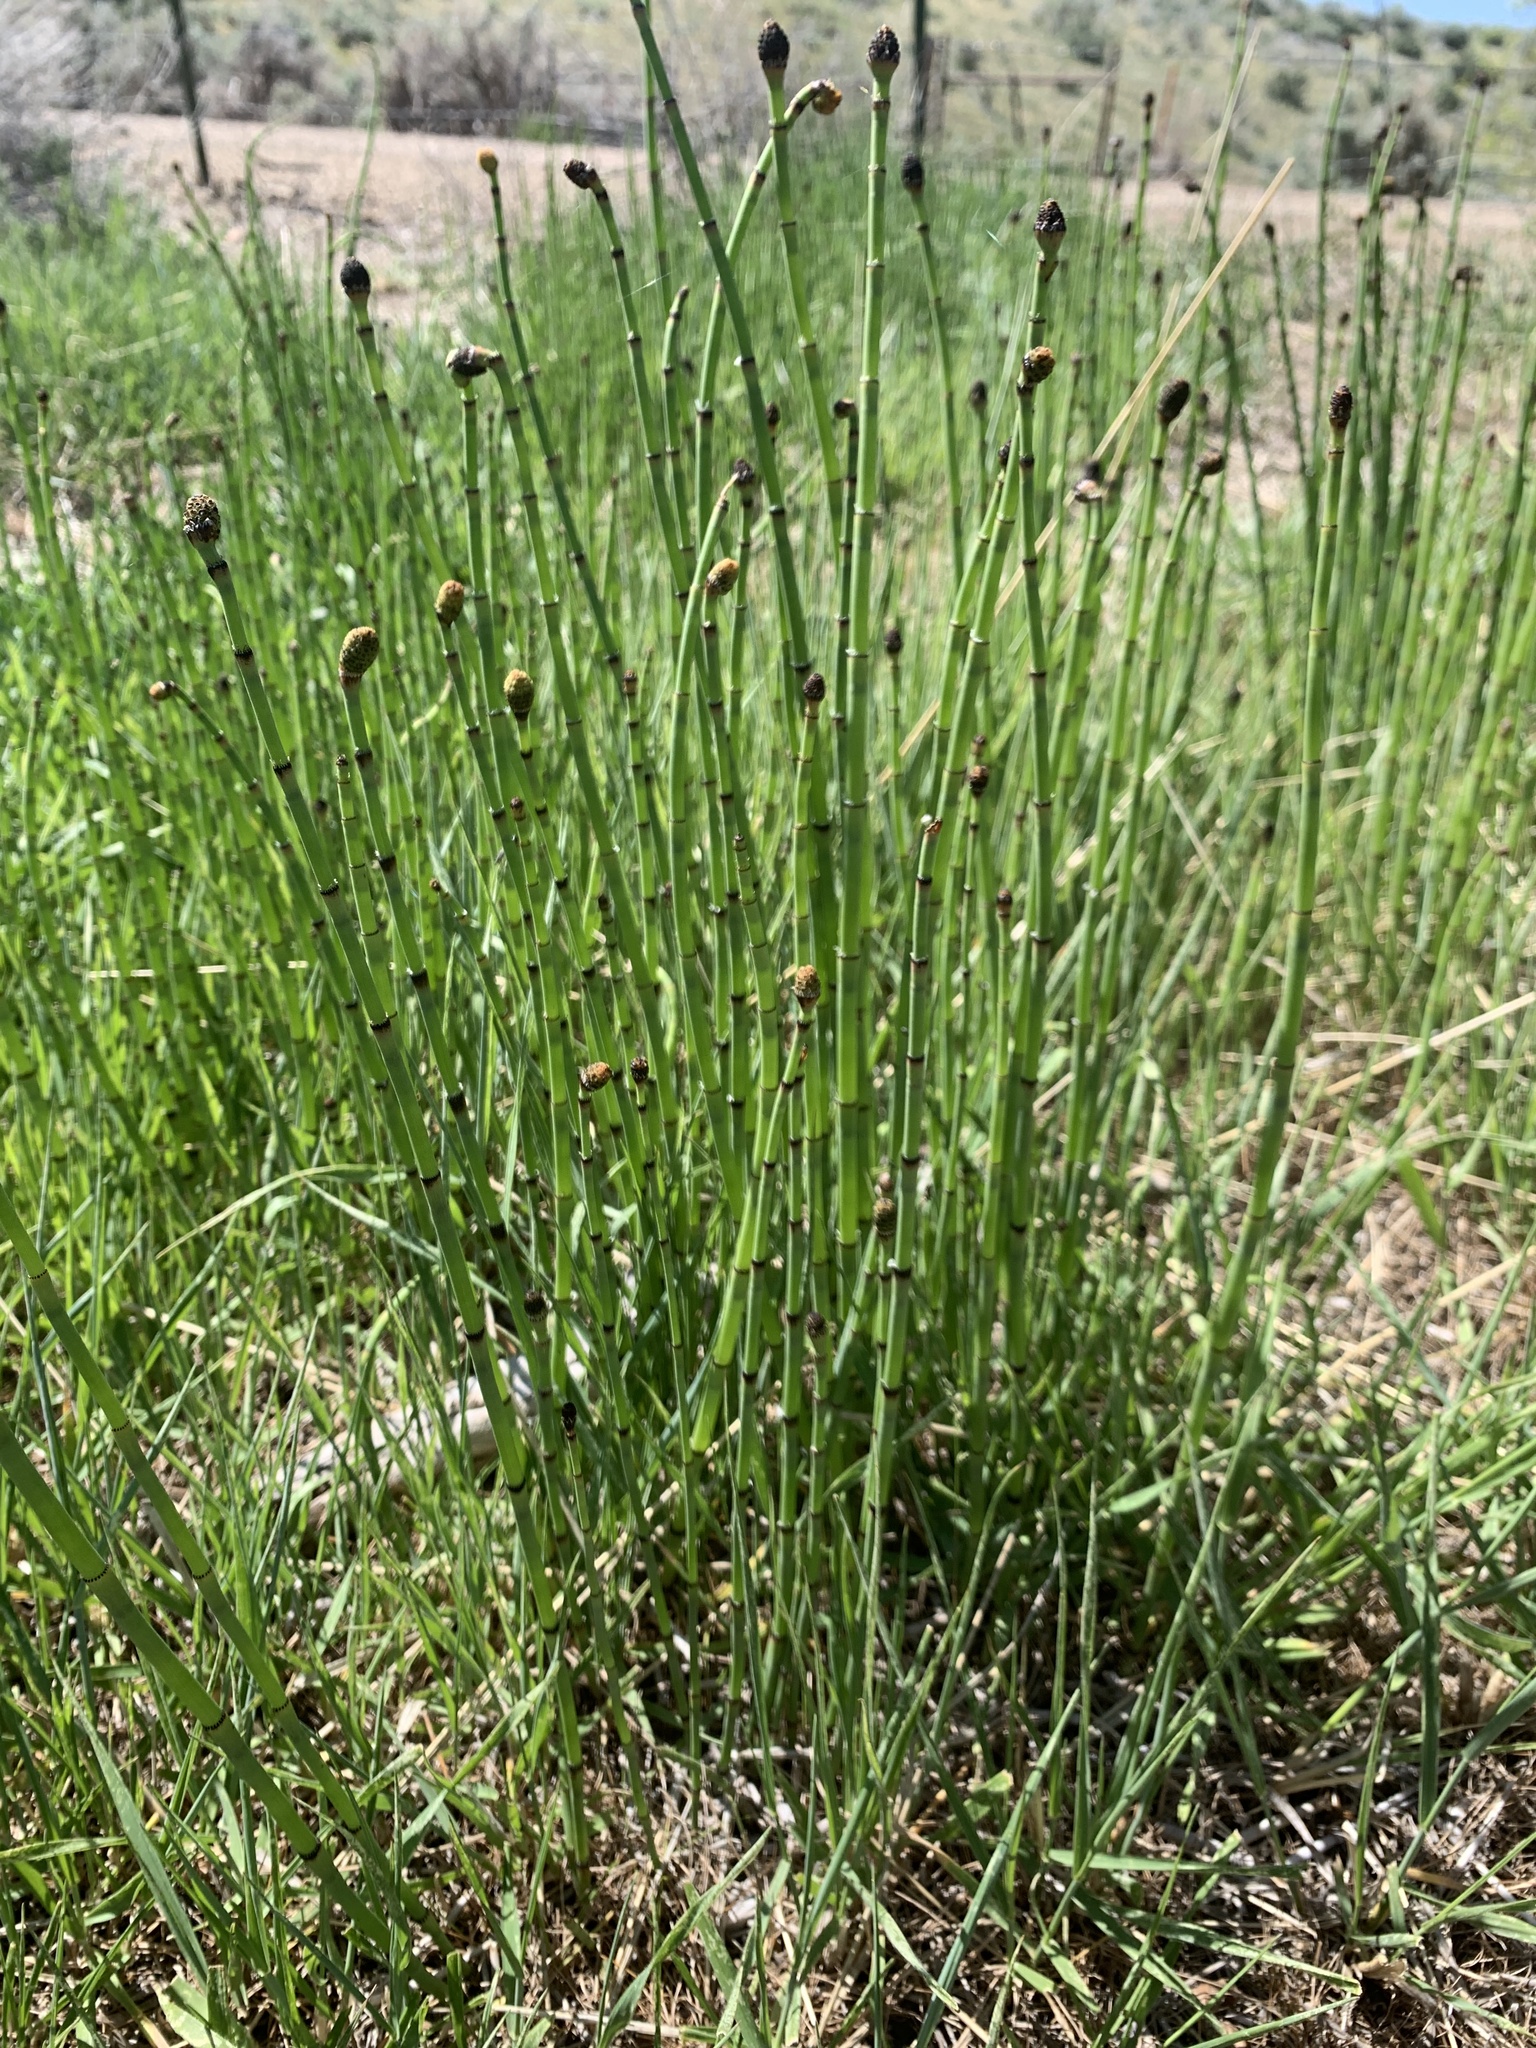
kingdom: Plantae
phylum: Tracheophyta
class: Polypodiopsida
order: Equisetales
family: Equisetaceae
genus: Equisetum
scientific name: Equisetum laevigatum
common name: Smooth scouring-rush
